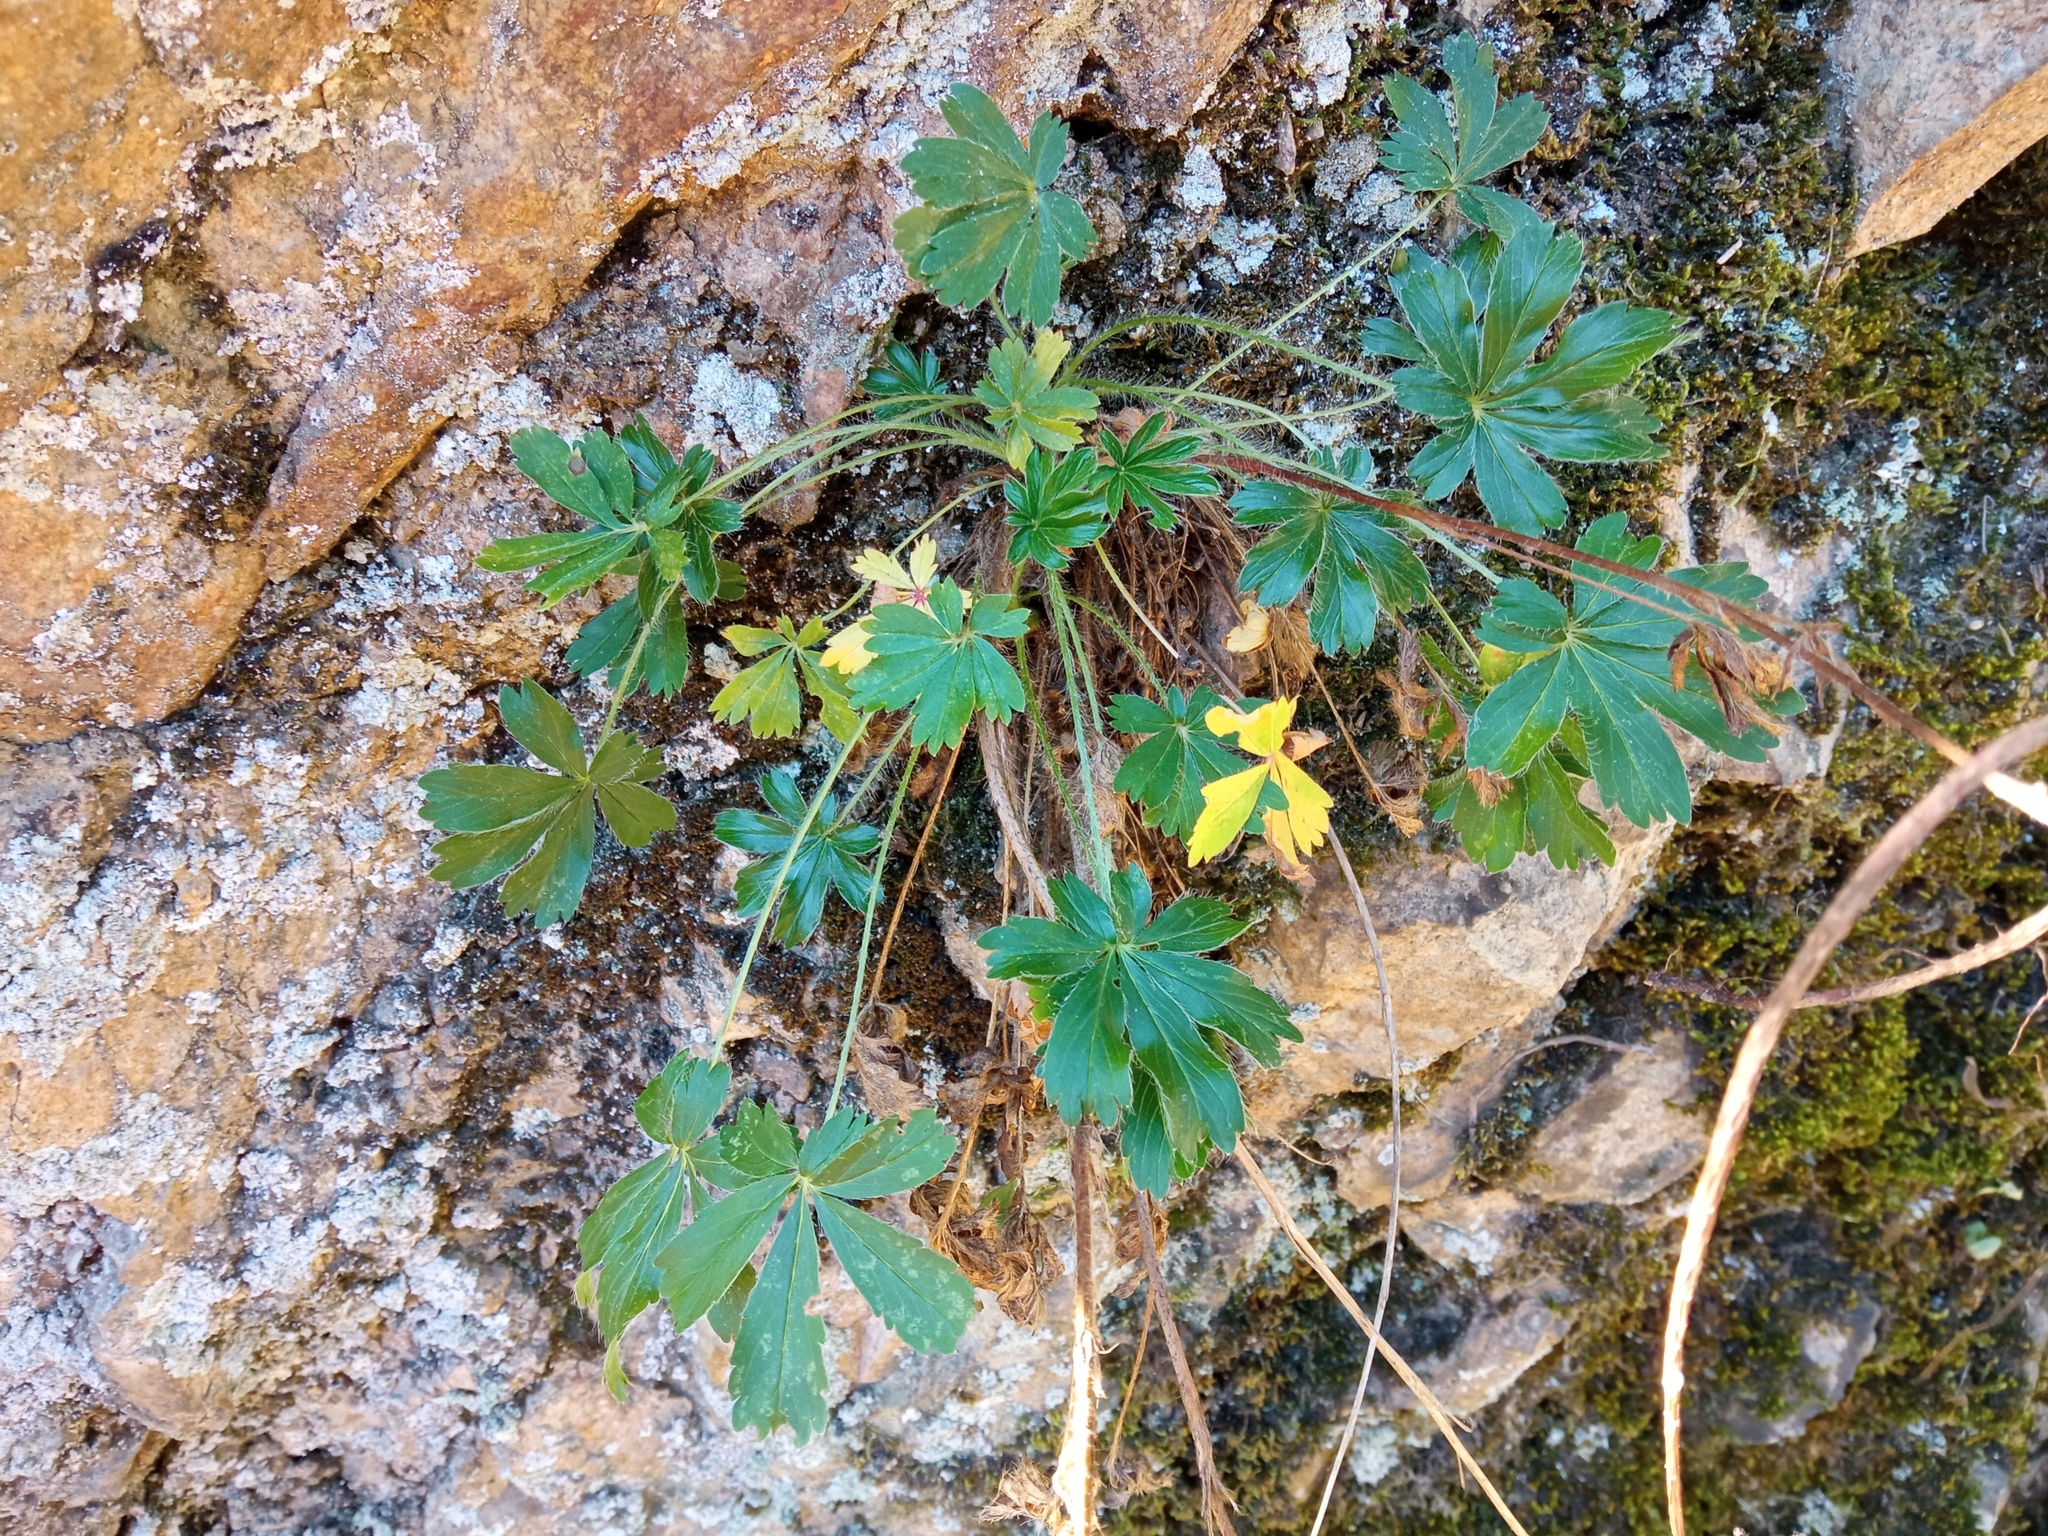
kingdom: Plantae
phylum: Tracheophyta
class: Magnoliopsida
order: Rosales
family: Rosaceae
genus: Potentilla
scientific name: Potentilla hirta
